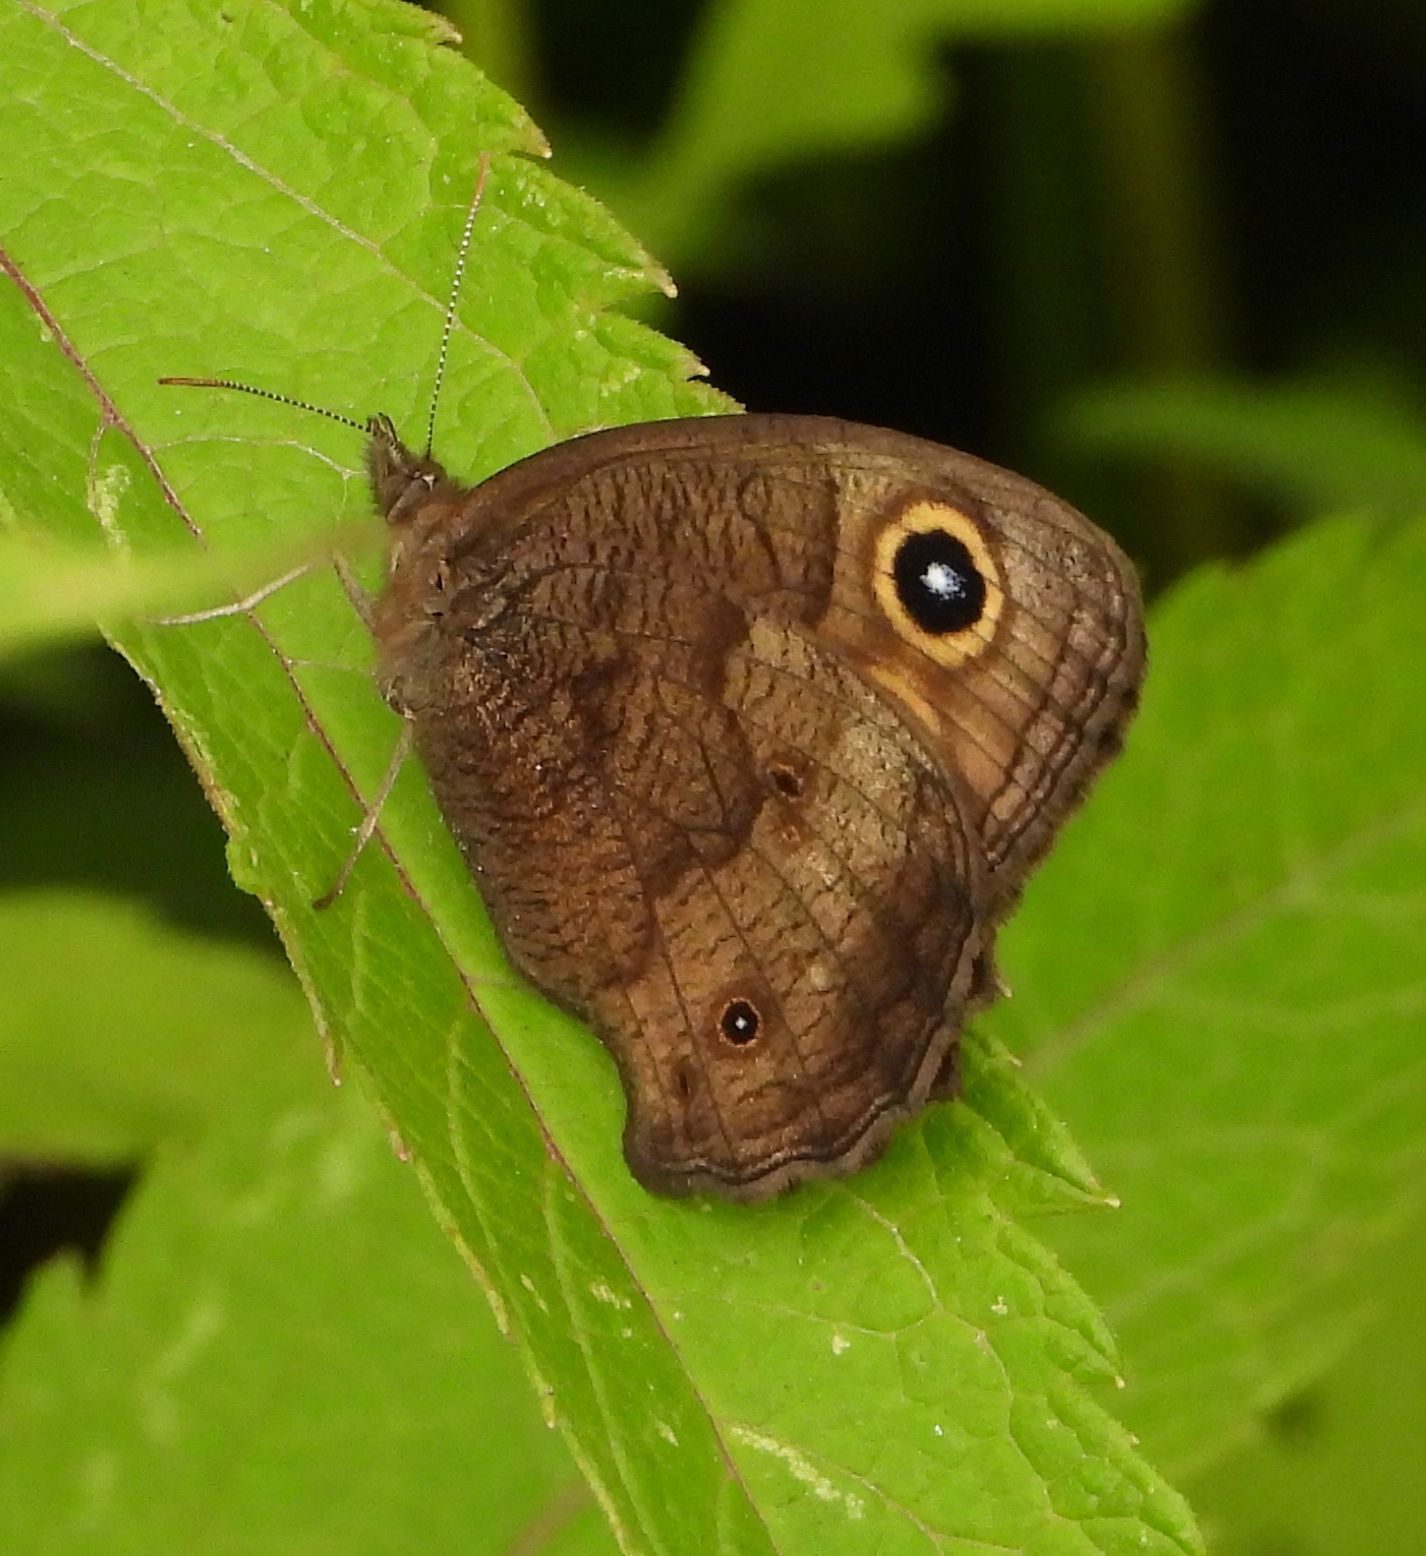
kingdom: Animalia
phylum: Arthropoda
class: Insecta
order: Lepidoptera
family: Nymphalidae
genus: Cercyonis
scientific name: Cercyonis pegala
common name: Common wood-nymph
